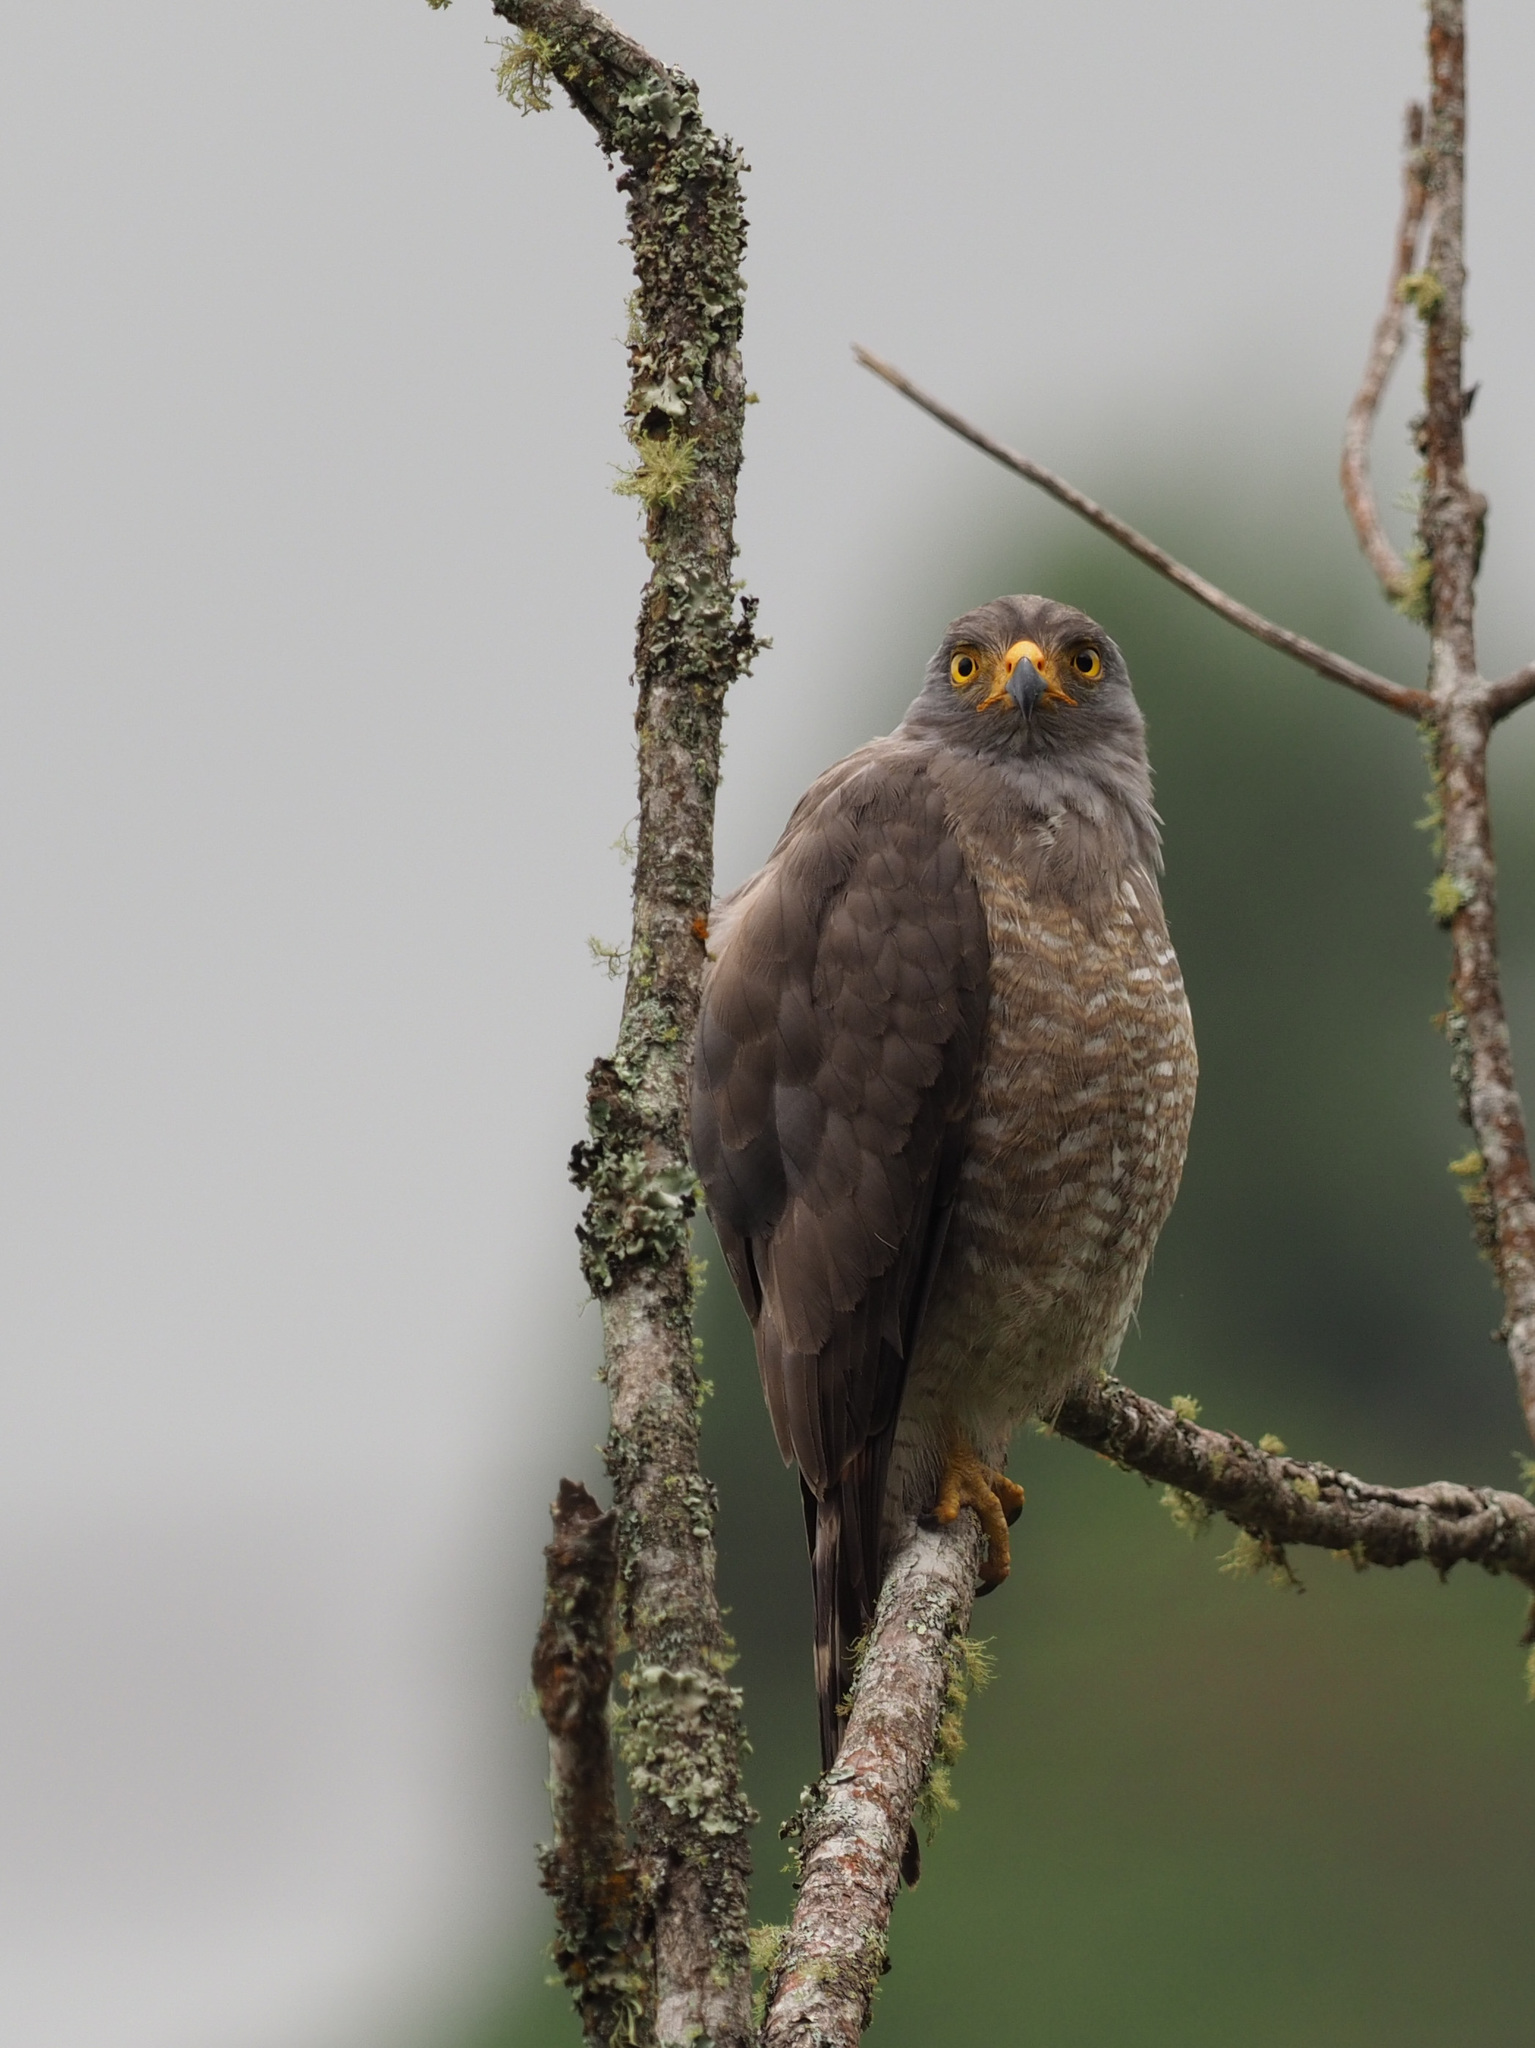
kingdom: Animalia
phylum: Chordata
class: Aves
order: Accipitriformes
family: Accipitridae
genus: Rupornis
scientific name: Rupornis magnirostris
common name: Roadside hawk
